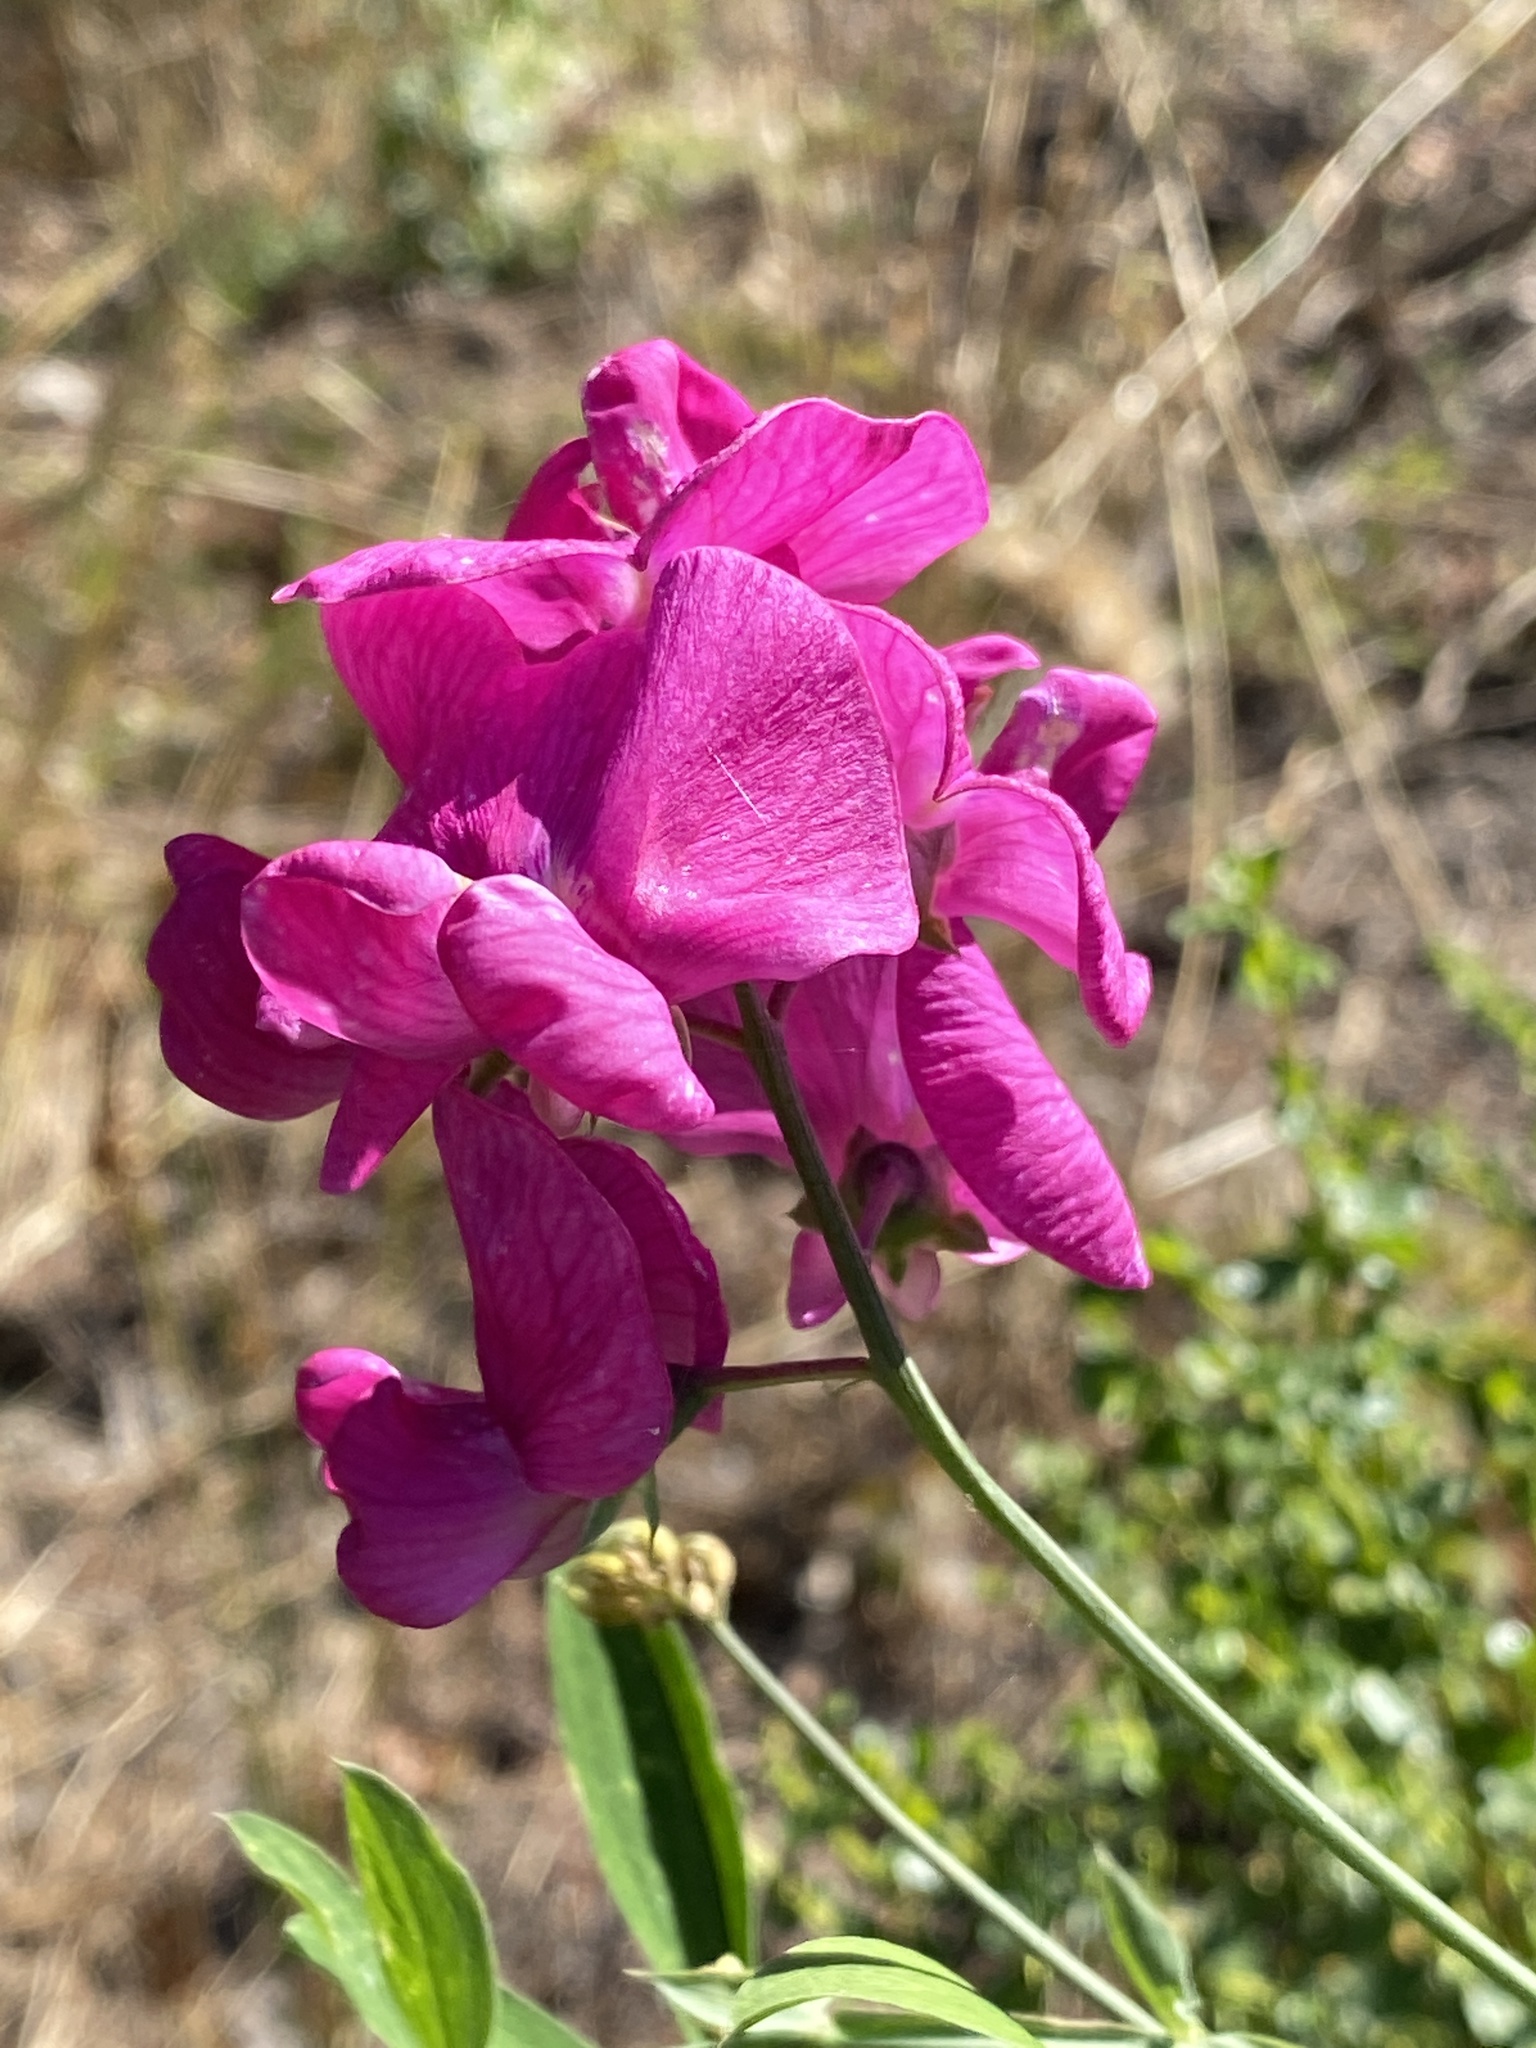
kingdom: Plantae
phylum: Tracheophyta
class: Magnoliopsida
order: Fabales
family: Fabaceae
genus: Lathyrus
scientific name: Lathyrus latifolius
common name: Perennial pea
